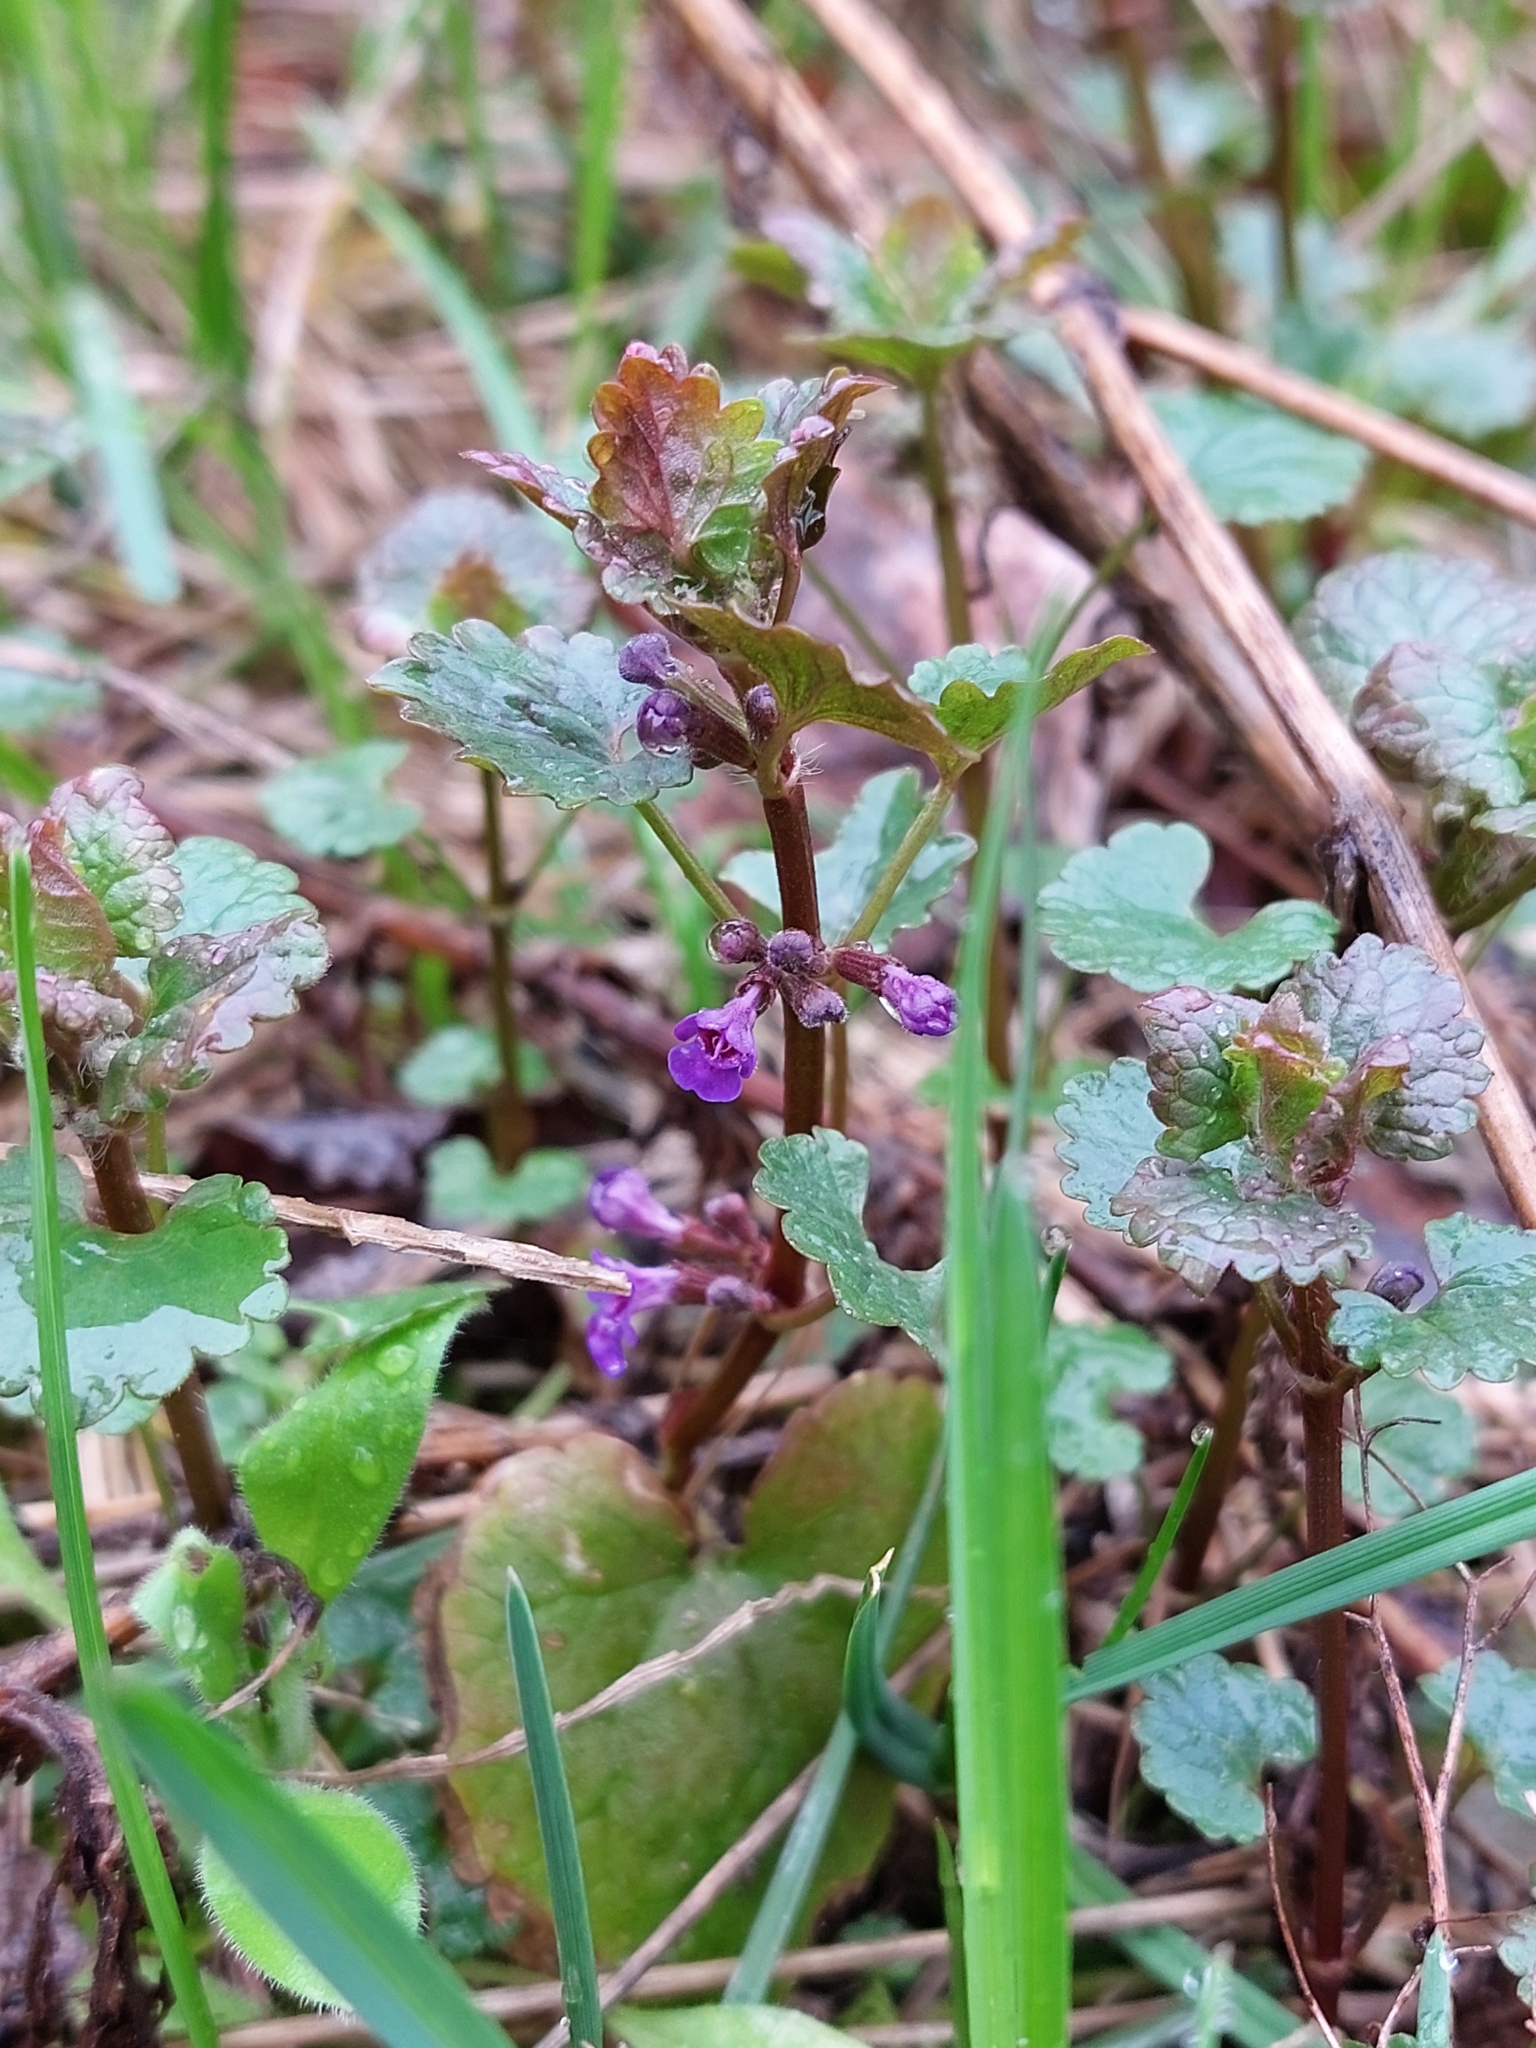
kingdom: Plantae
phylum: Tracheophyta
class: Magnoliopsida
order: Lamiales
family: Lamiaceae
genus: Glechoma
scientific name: Glechoma hederacea
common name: Ground ivy
